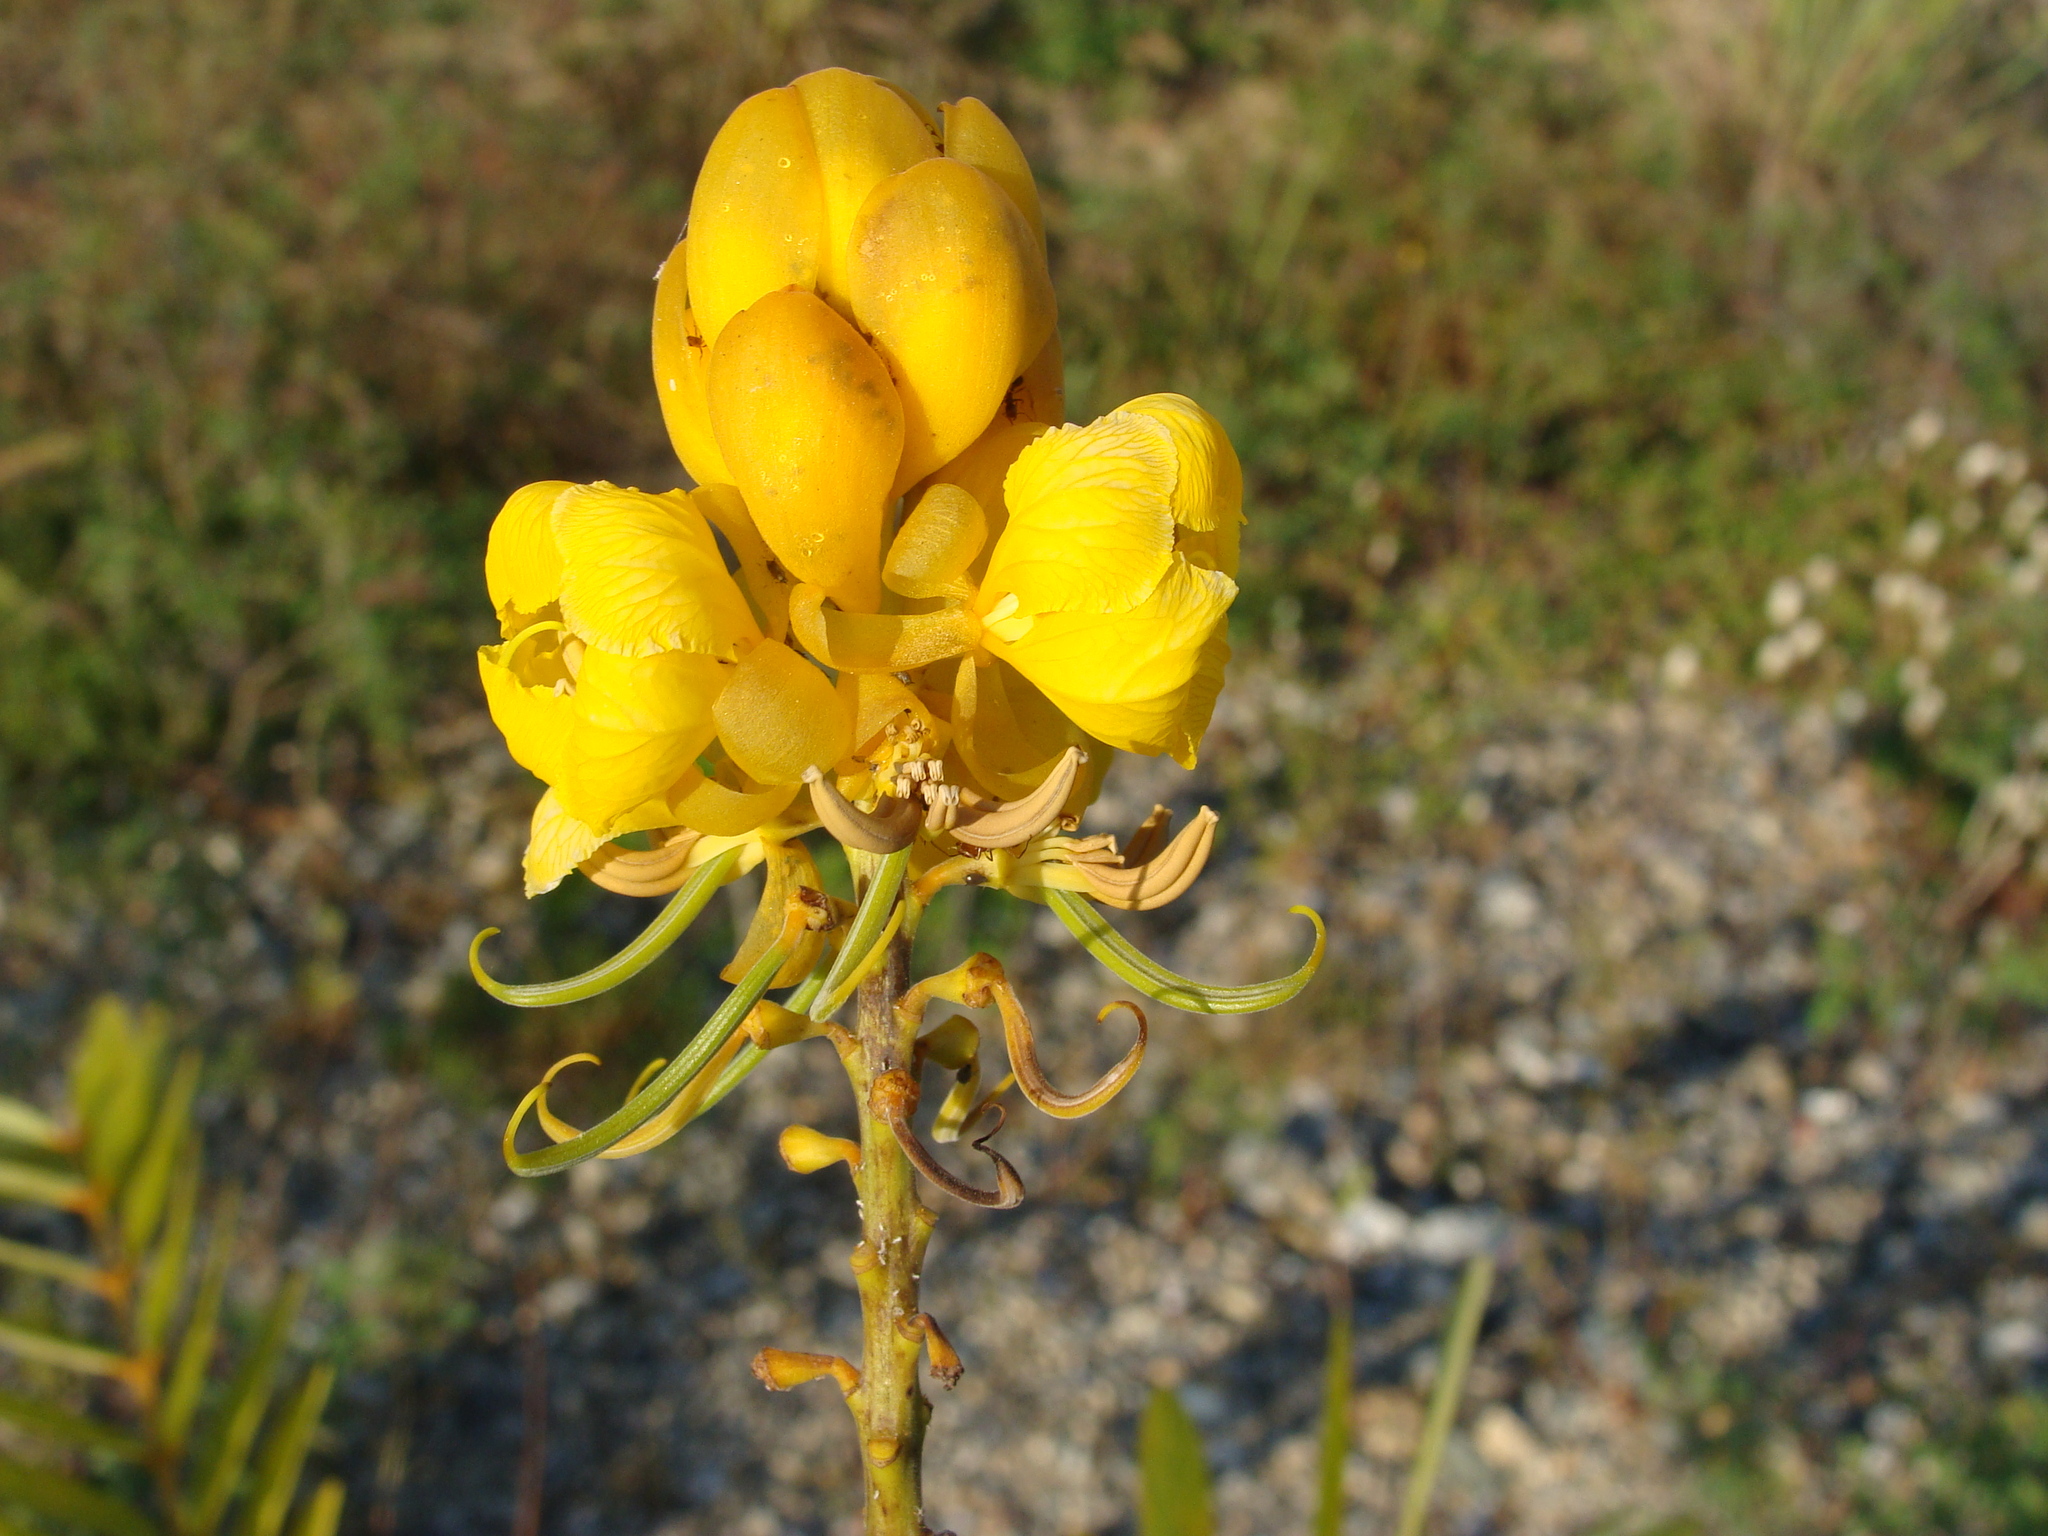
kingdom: Plantae
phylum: Tracheophyta
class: Magnoliopsida
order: Fabales
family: Fabaceae
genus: Senna
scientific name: Senna alata
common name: Emperor's candlesticks
